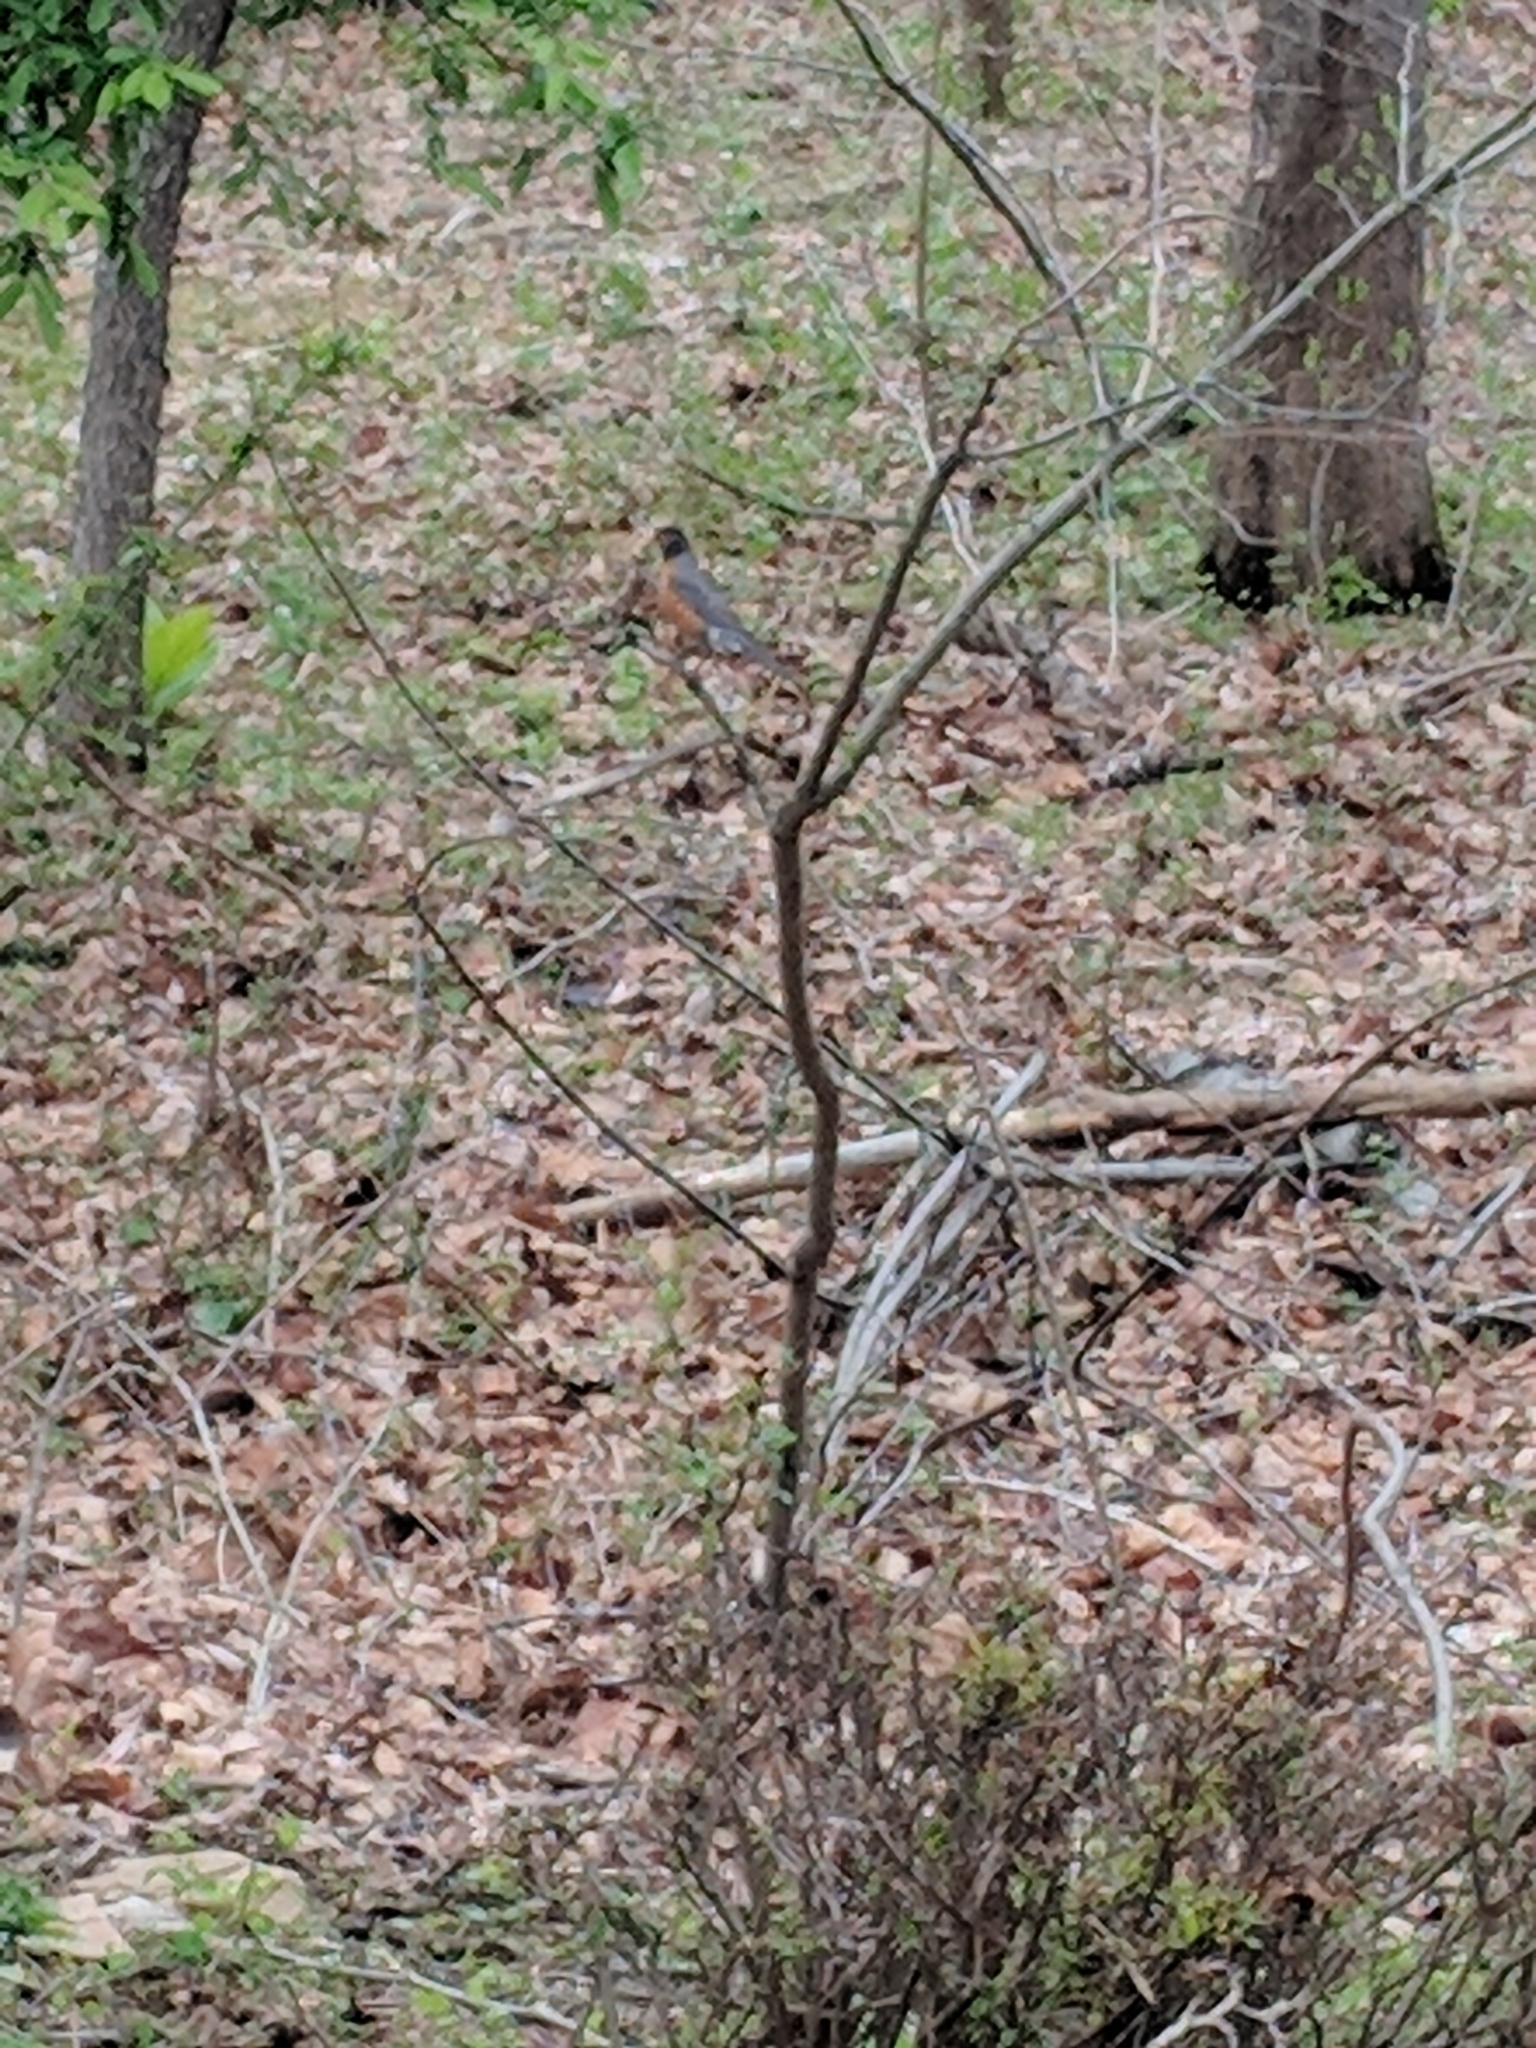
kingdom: Animalia
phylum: Chordata
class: Aves
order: Passeriformes
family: Turdidae
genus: Turdus
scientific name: Turdus migratorius
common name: American robin
